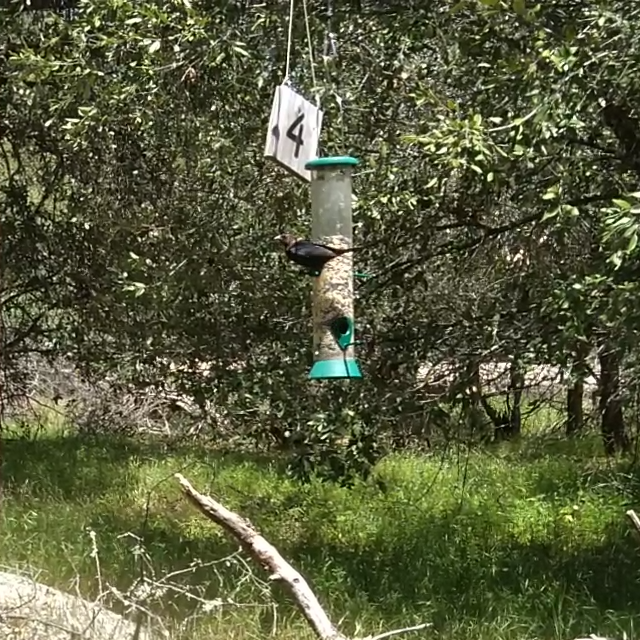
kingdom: Animalia
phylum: Chordata
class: Aves
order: Passeriformes
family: Icteridae
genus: Molothrus
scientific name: Molothrus ater
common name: Brown-headed cowbird
